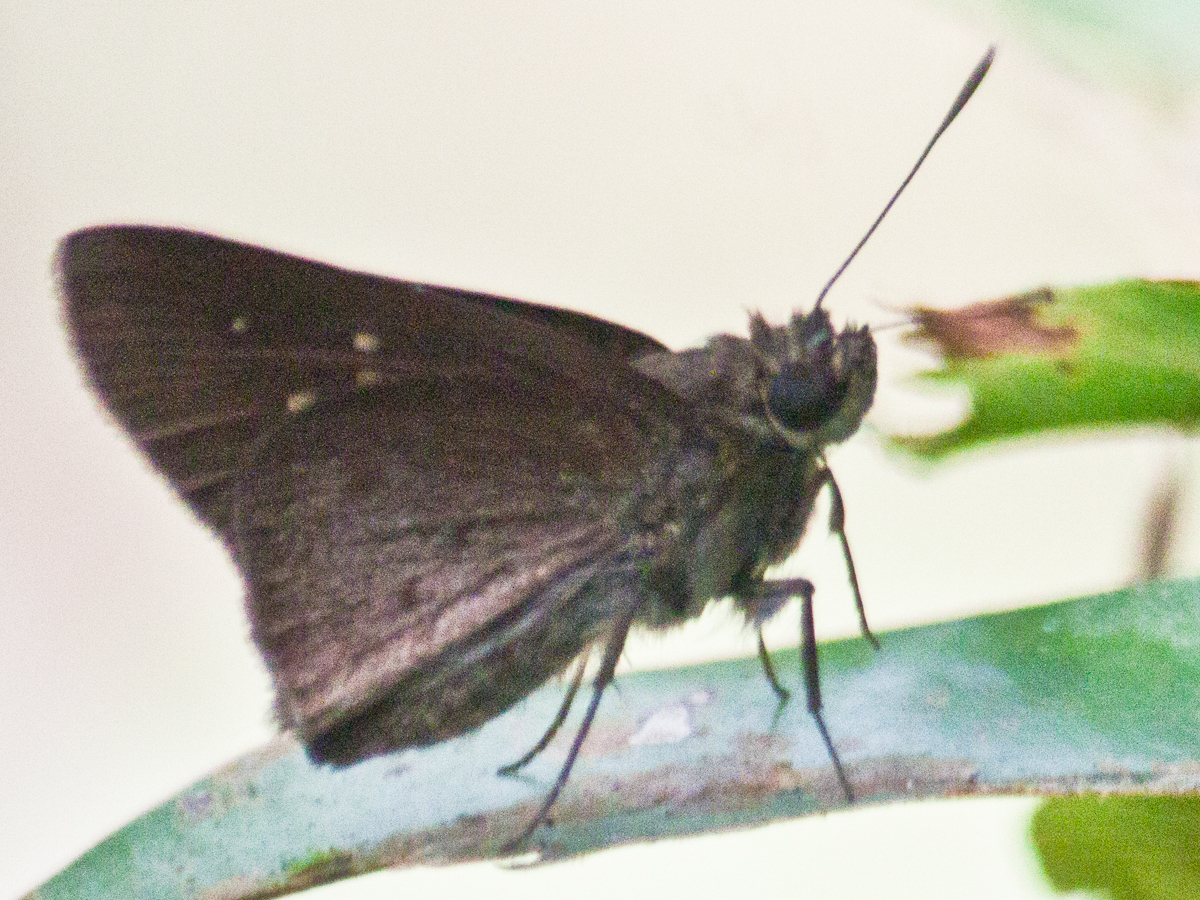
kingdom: Animalia
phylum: Arthropoda
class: Insecta
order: Lepidoptera
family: Hesperiidae
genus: Suastus
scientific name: Suastus minuta
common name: Small palm bob
